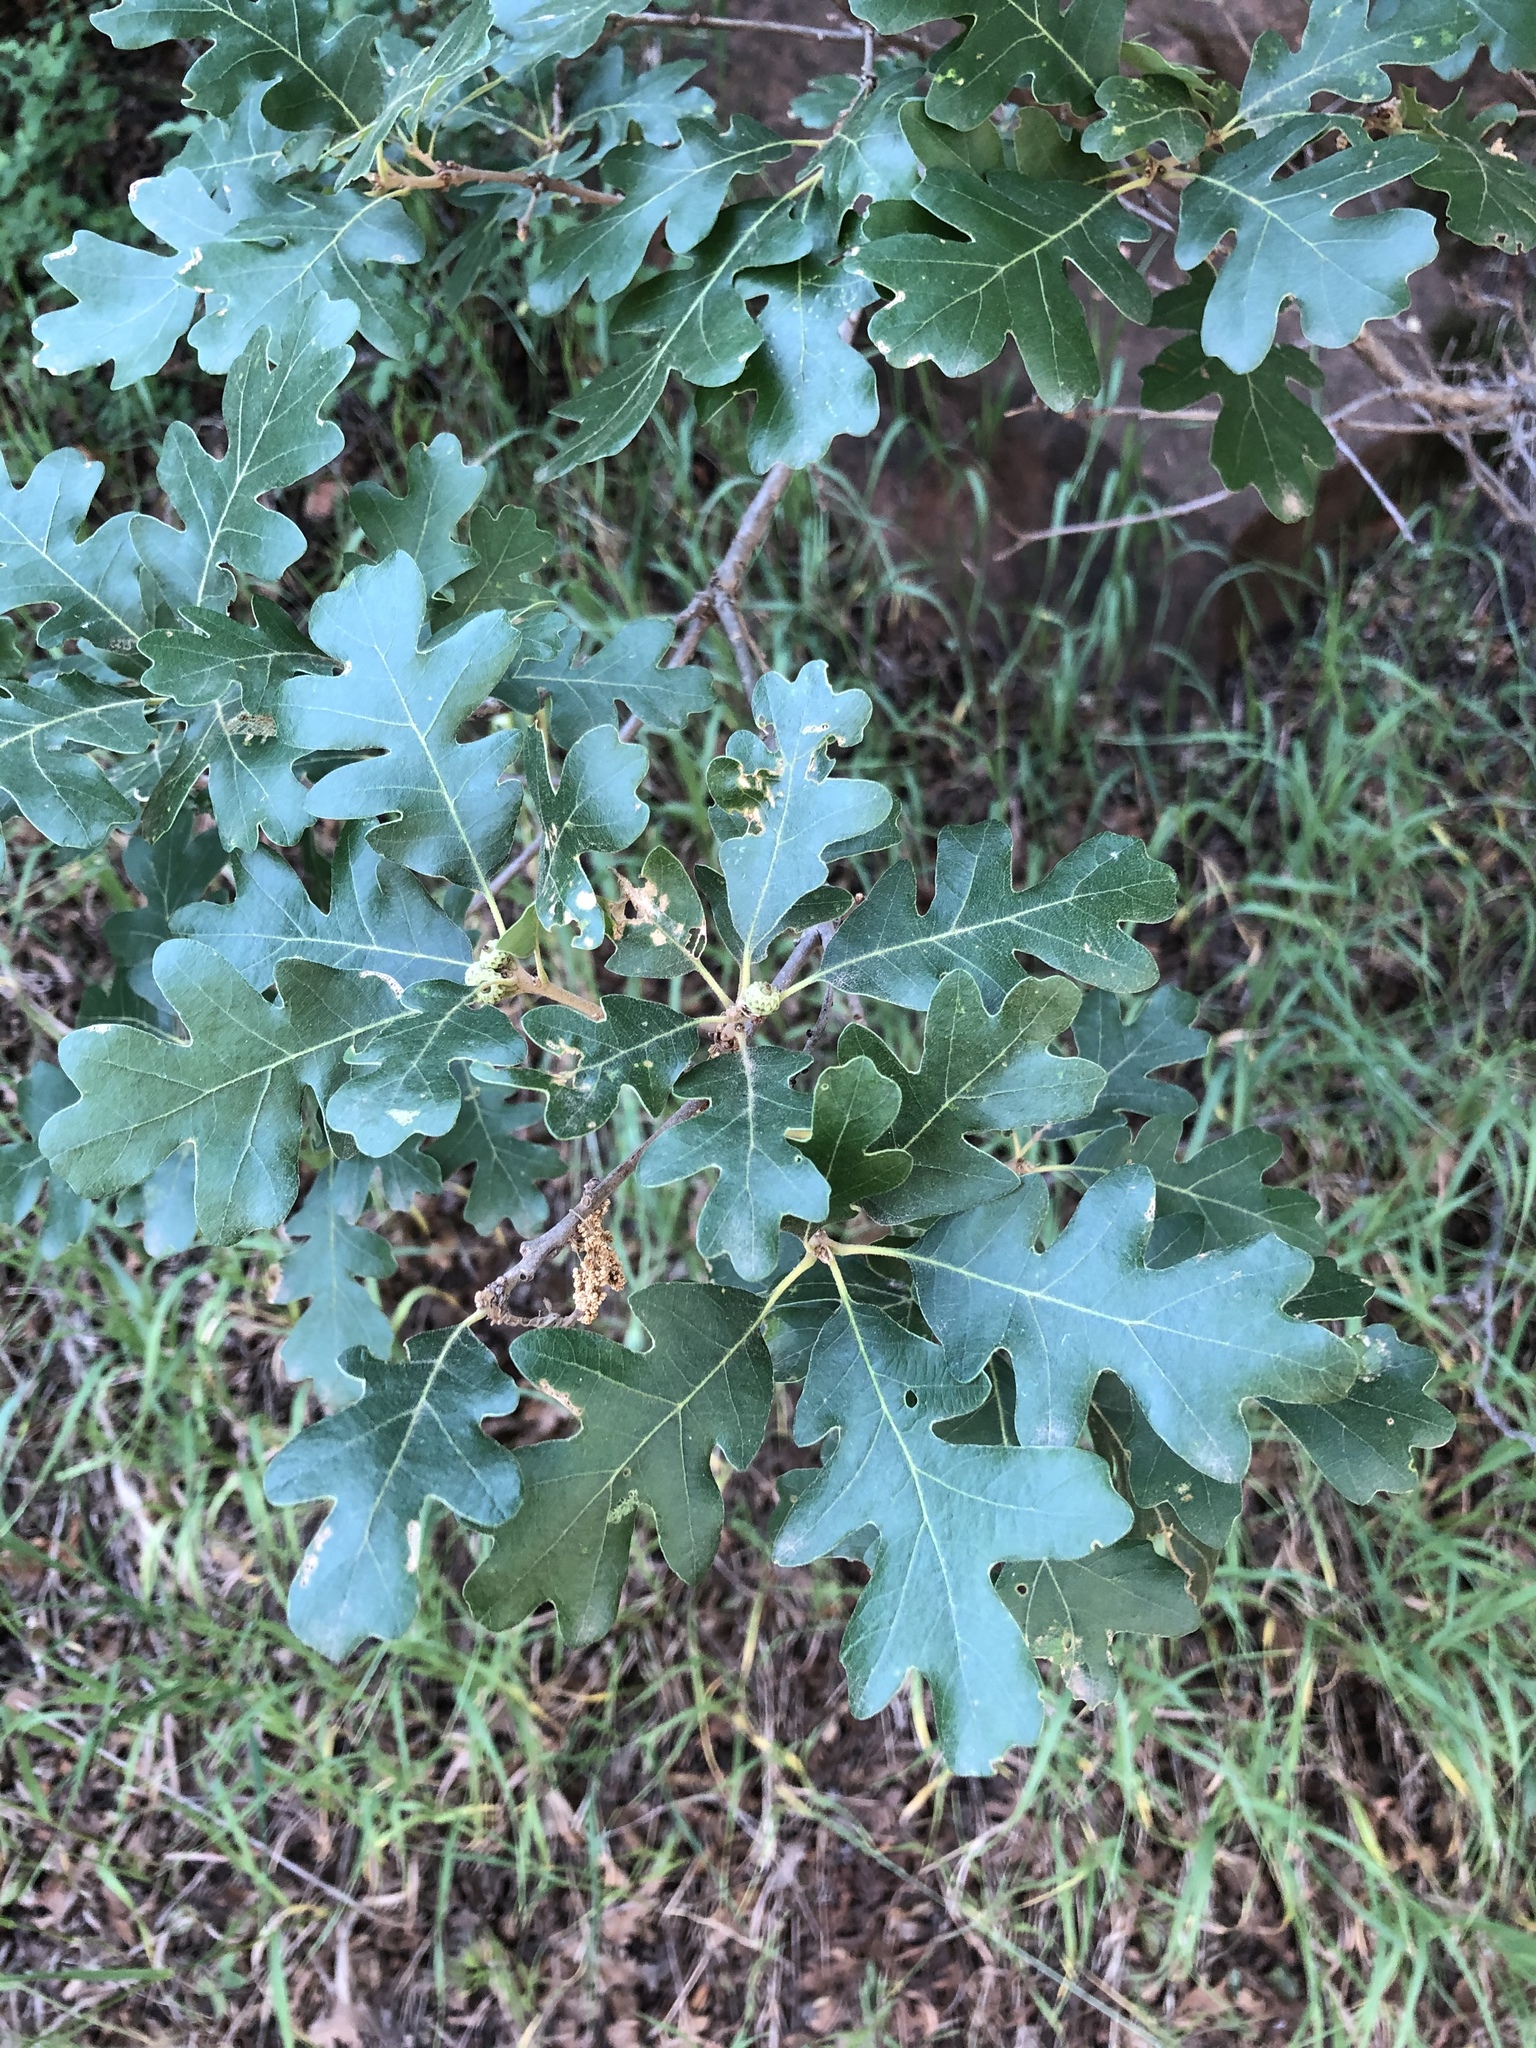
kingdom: Plantae
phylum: Tracheophyta
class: Magnoliopsida
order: Fagales
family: Fagaceae
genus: Quercus
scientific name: Quercus gambelii
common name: Gambel oak
